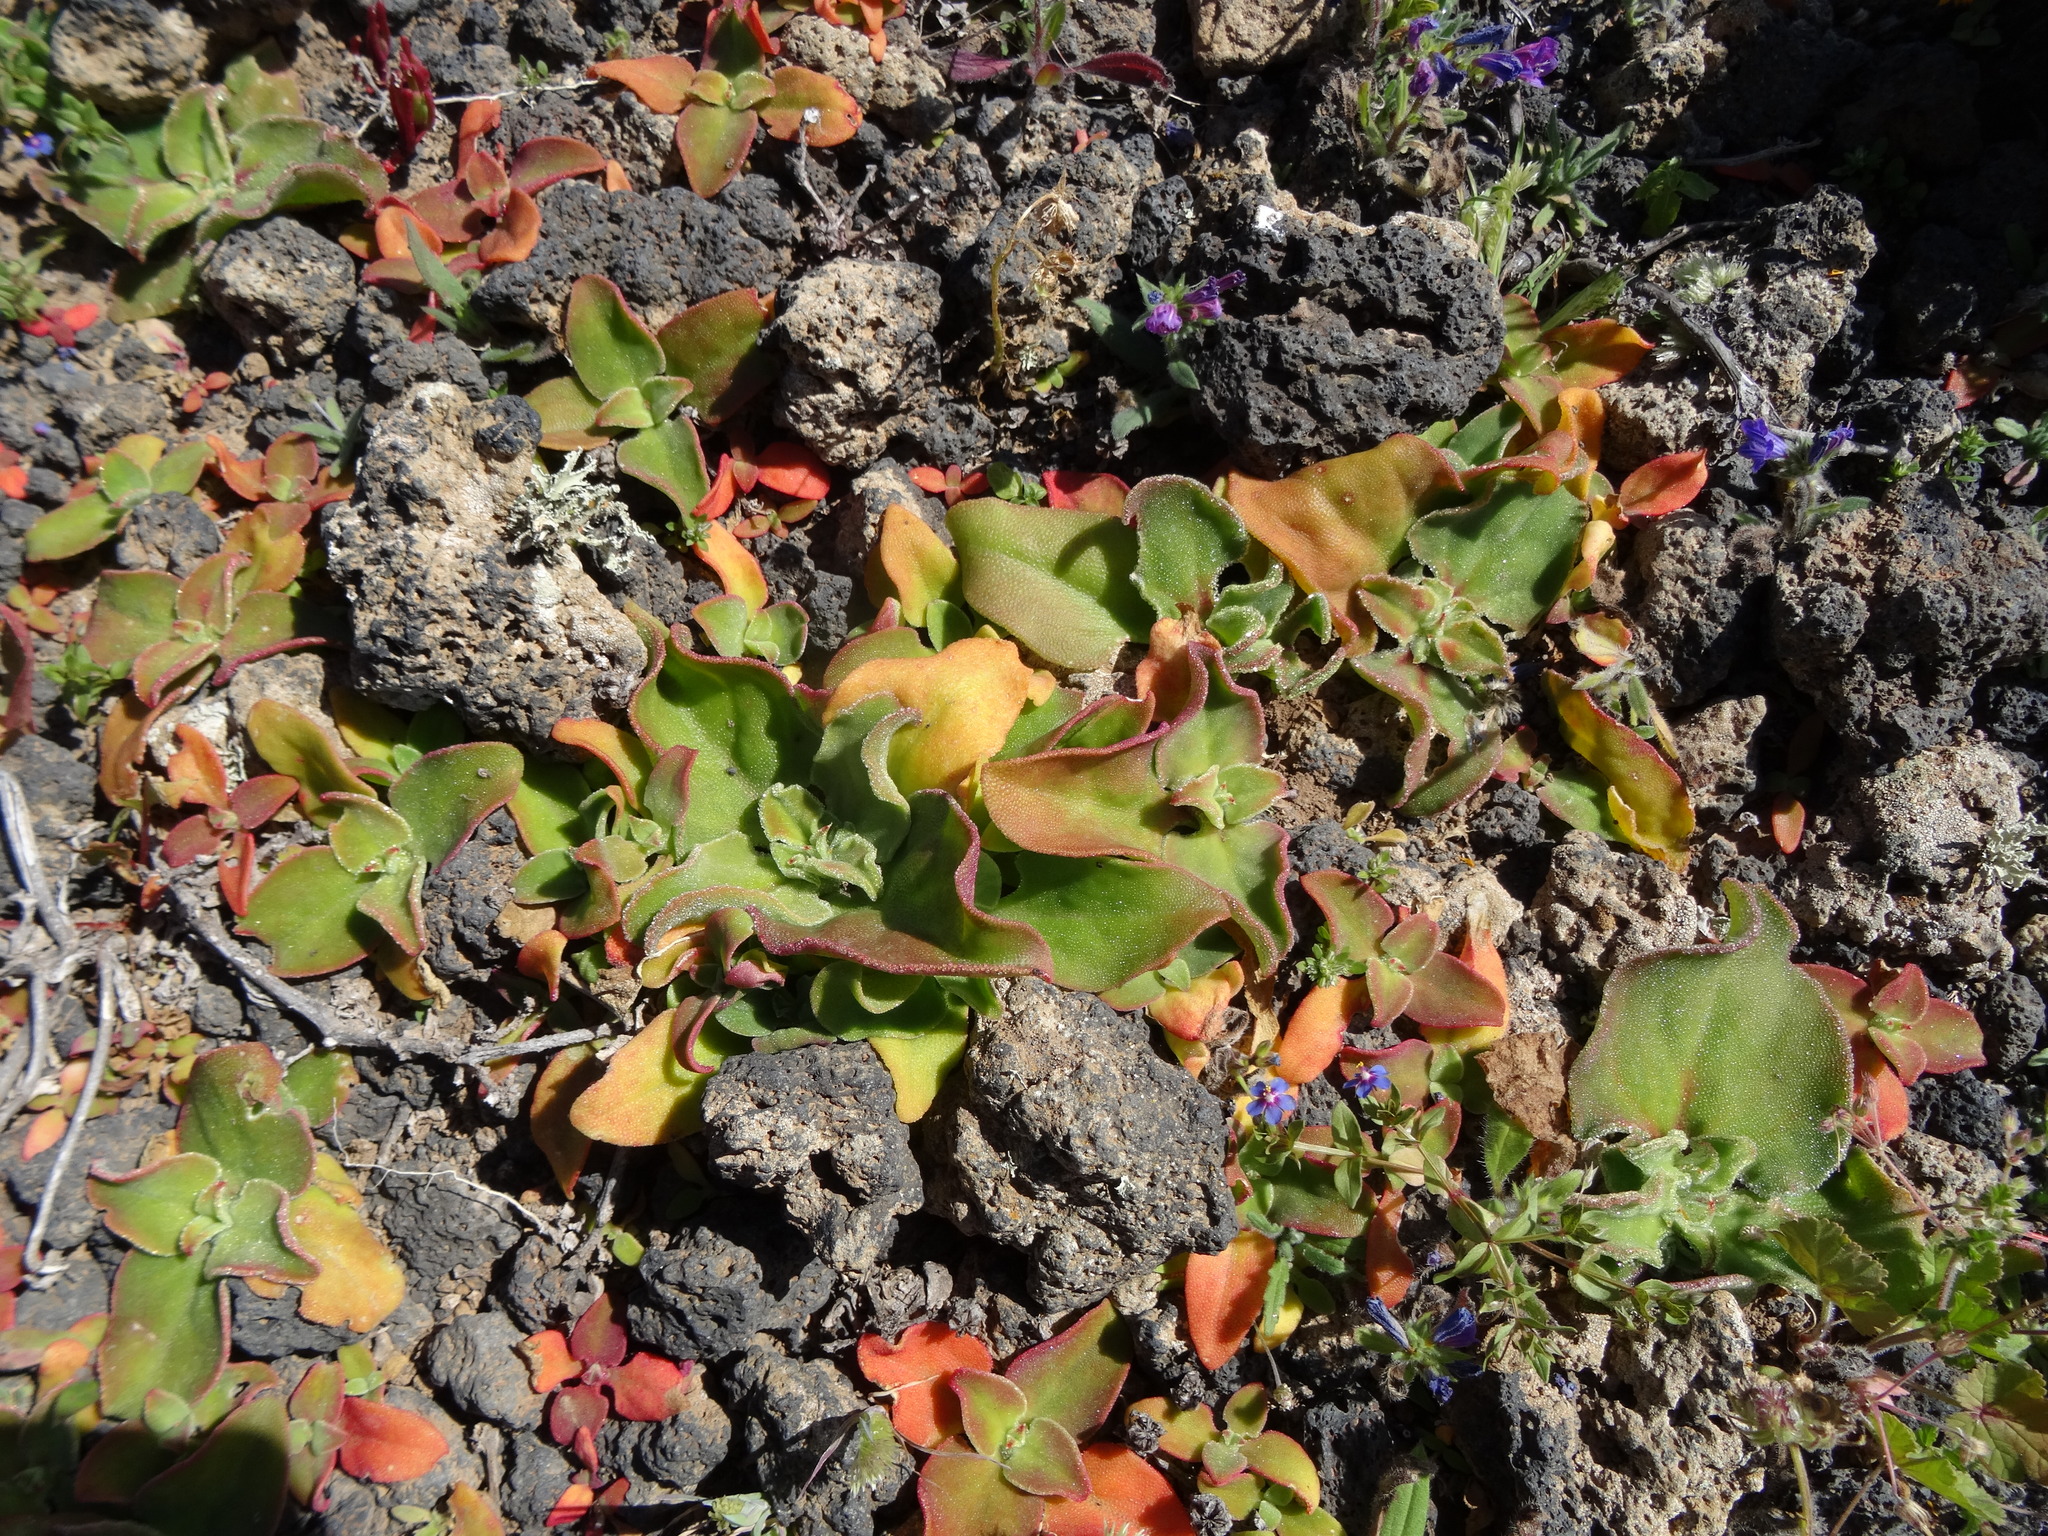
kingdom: Plantae
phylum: Tracheophyta
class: Magnoliopsida
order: Caryophyllales
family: Aizoaceae
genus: Mesembryanthemum
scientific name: Mesembryanthemum crystallinum
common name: Common iceplant
